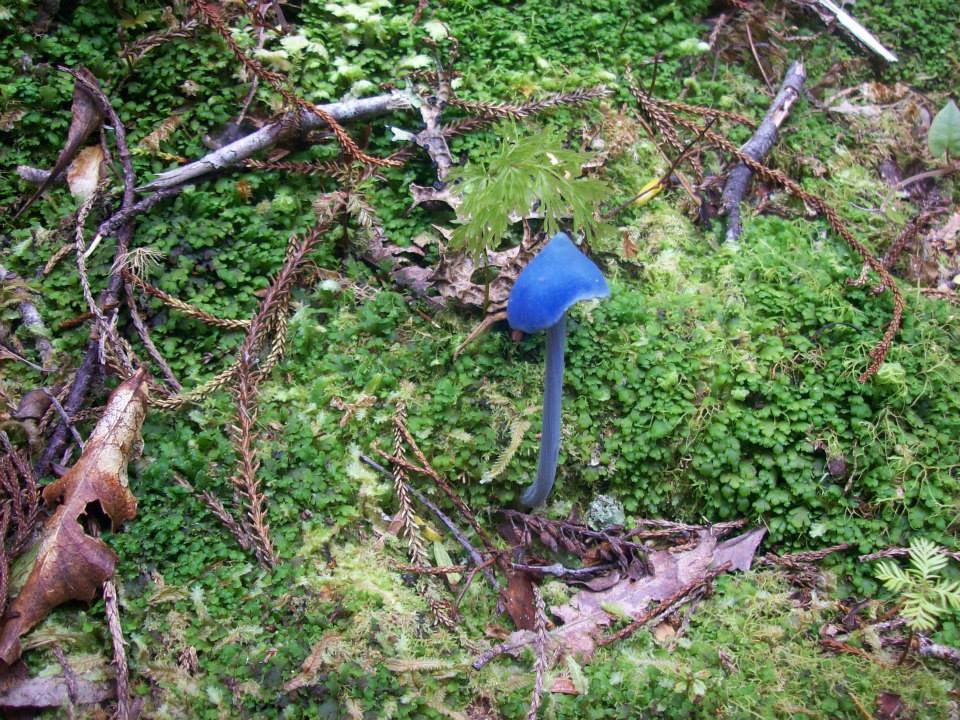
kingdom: Fungi
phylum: Basidiomycota
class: Agaricomycetes
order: Agaricales
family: Entolomataceae
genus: Entoloma
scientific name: Entoloma hochstetteri
